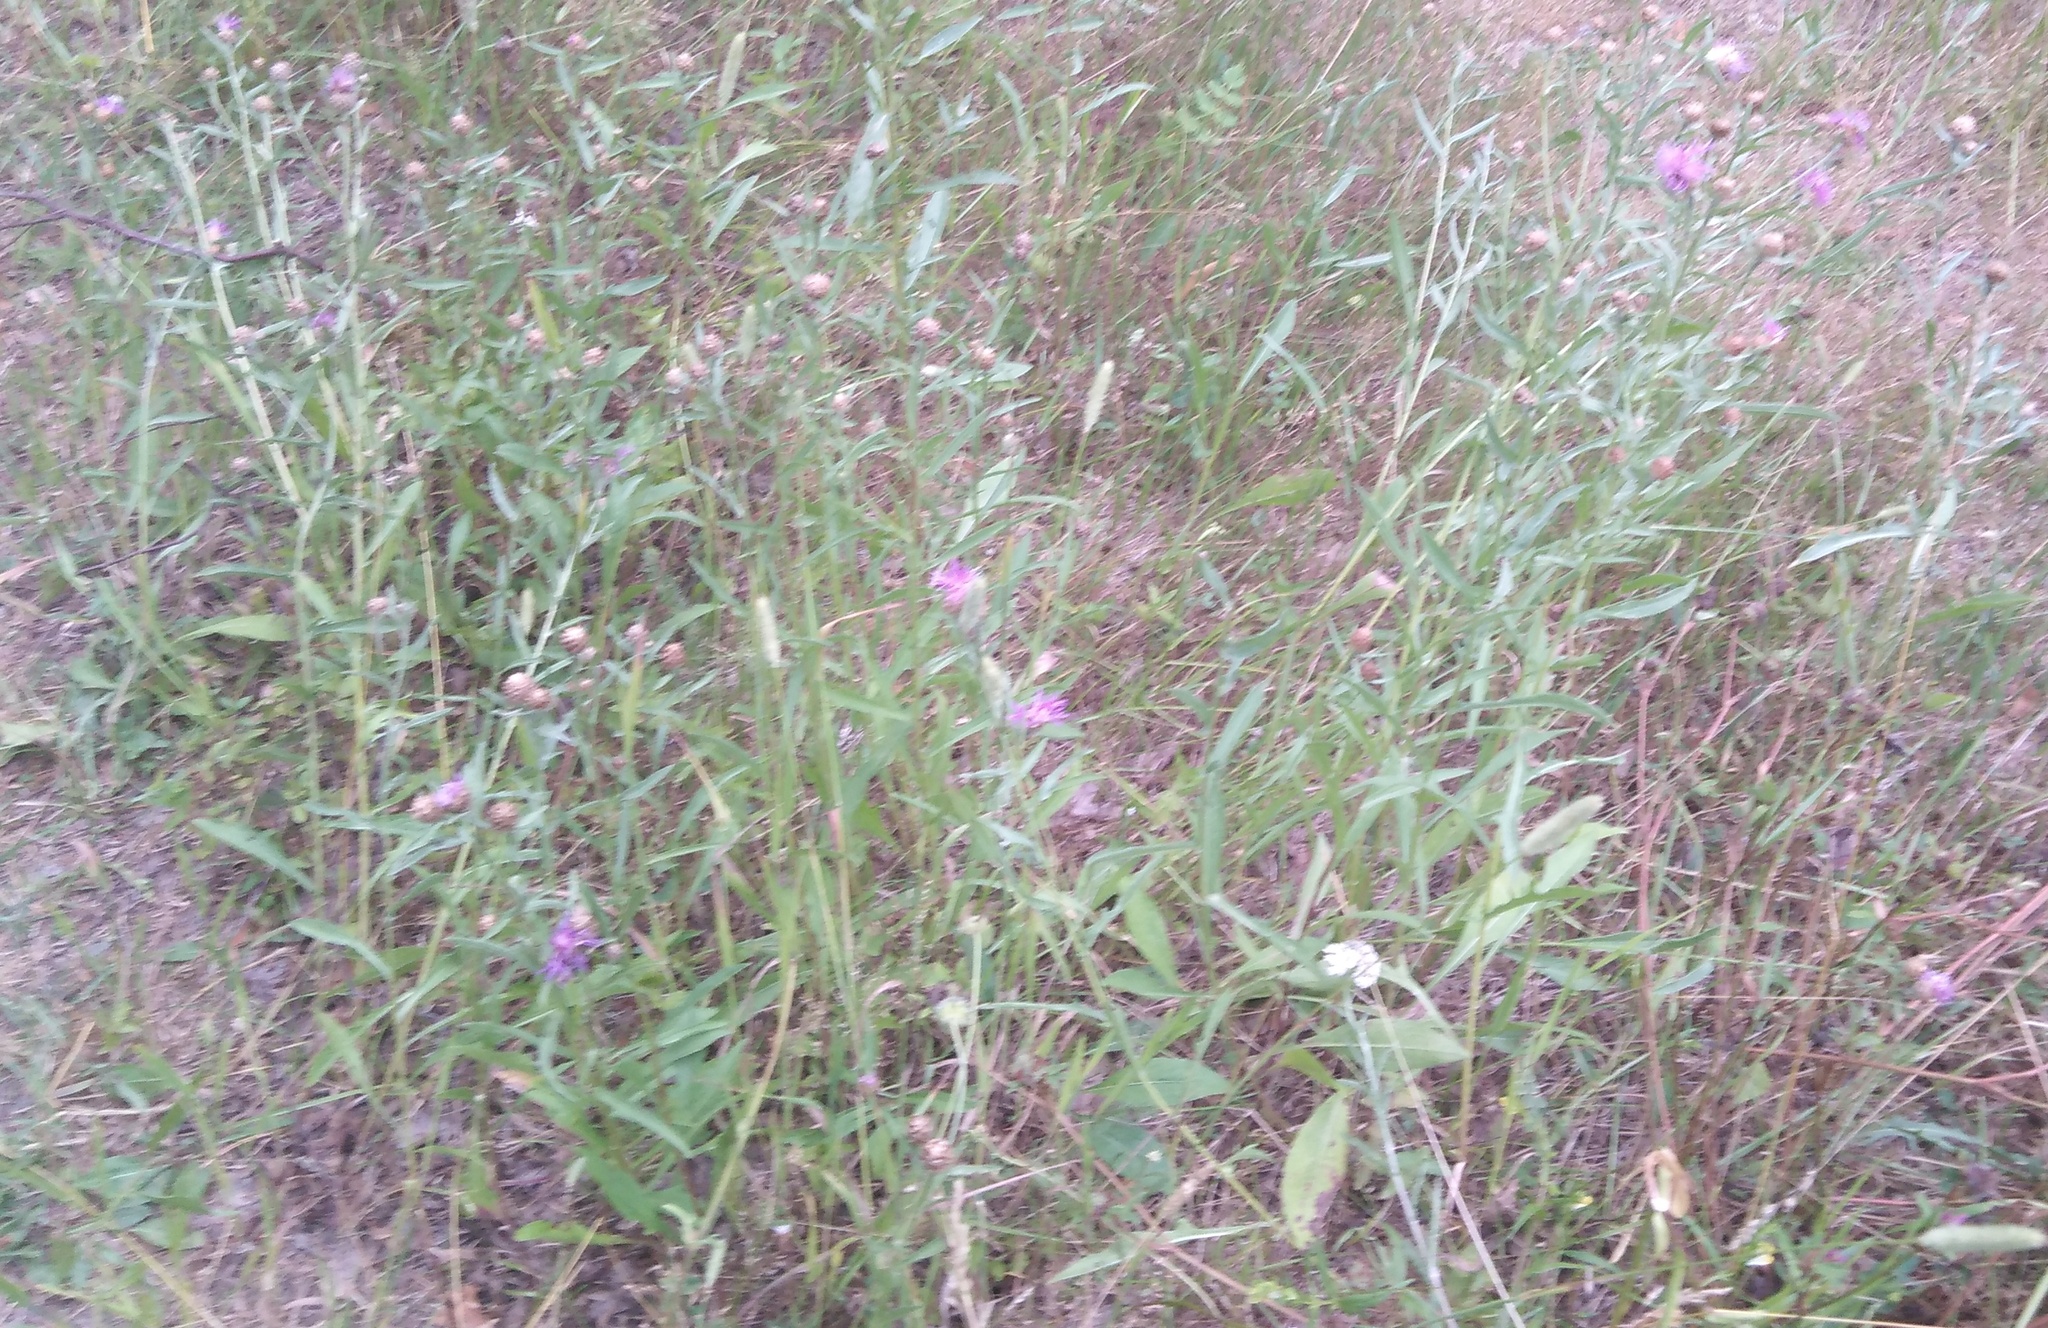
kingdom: Plantae
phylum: Tracheophyta
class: Magnoliopsida
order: Asterales
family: Asteraceae
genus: Centaurea
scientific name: Centaurea jacea
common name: Brown knapweed
